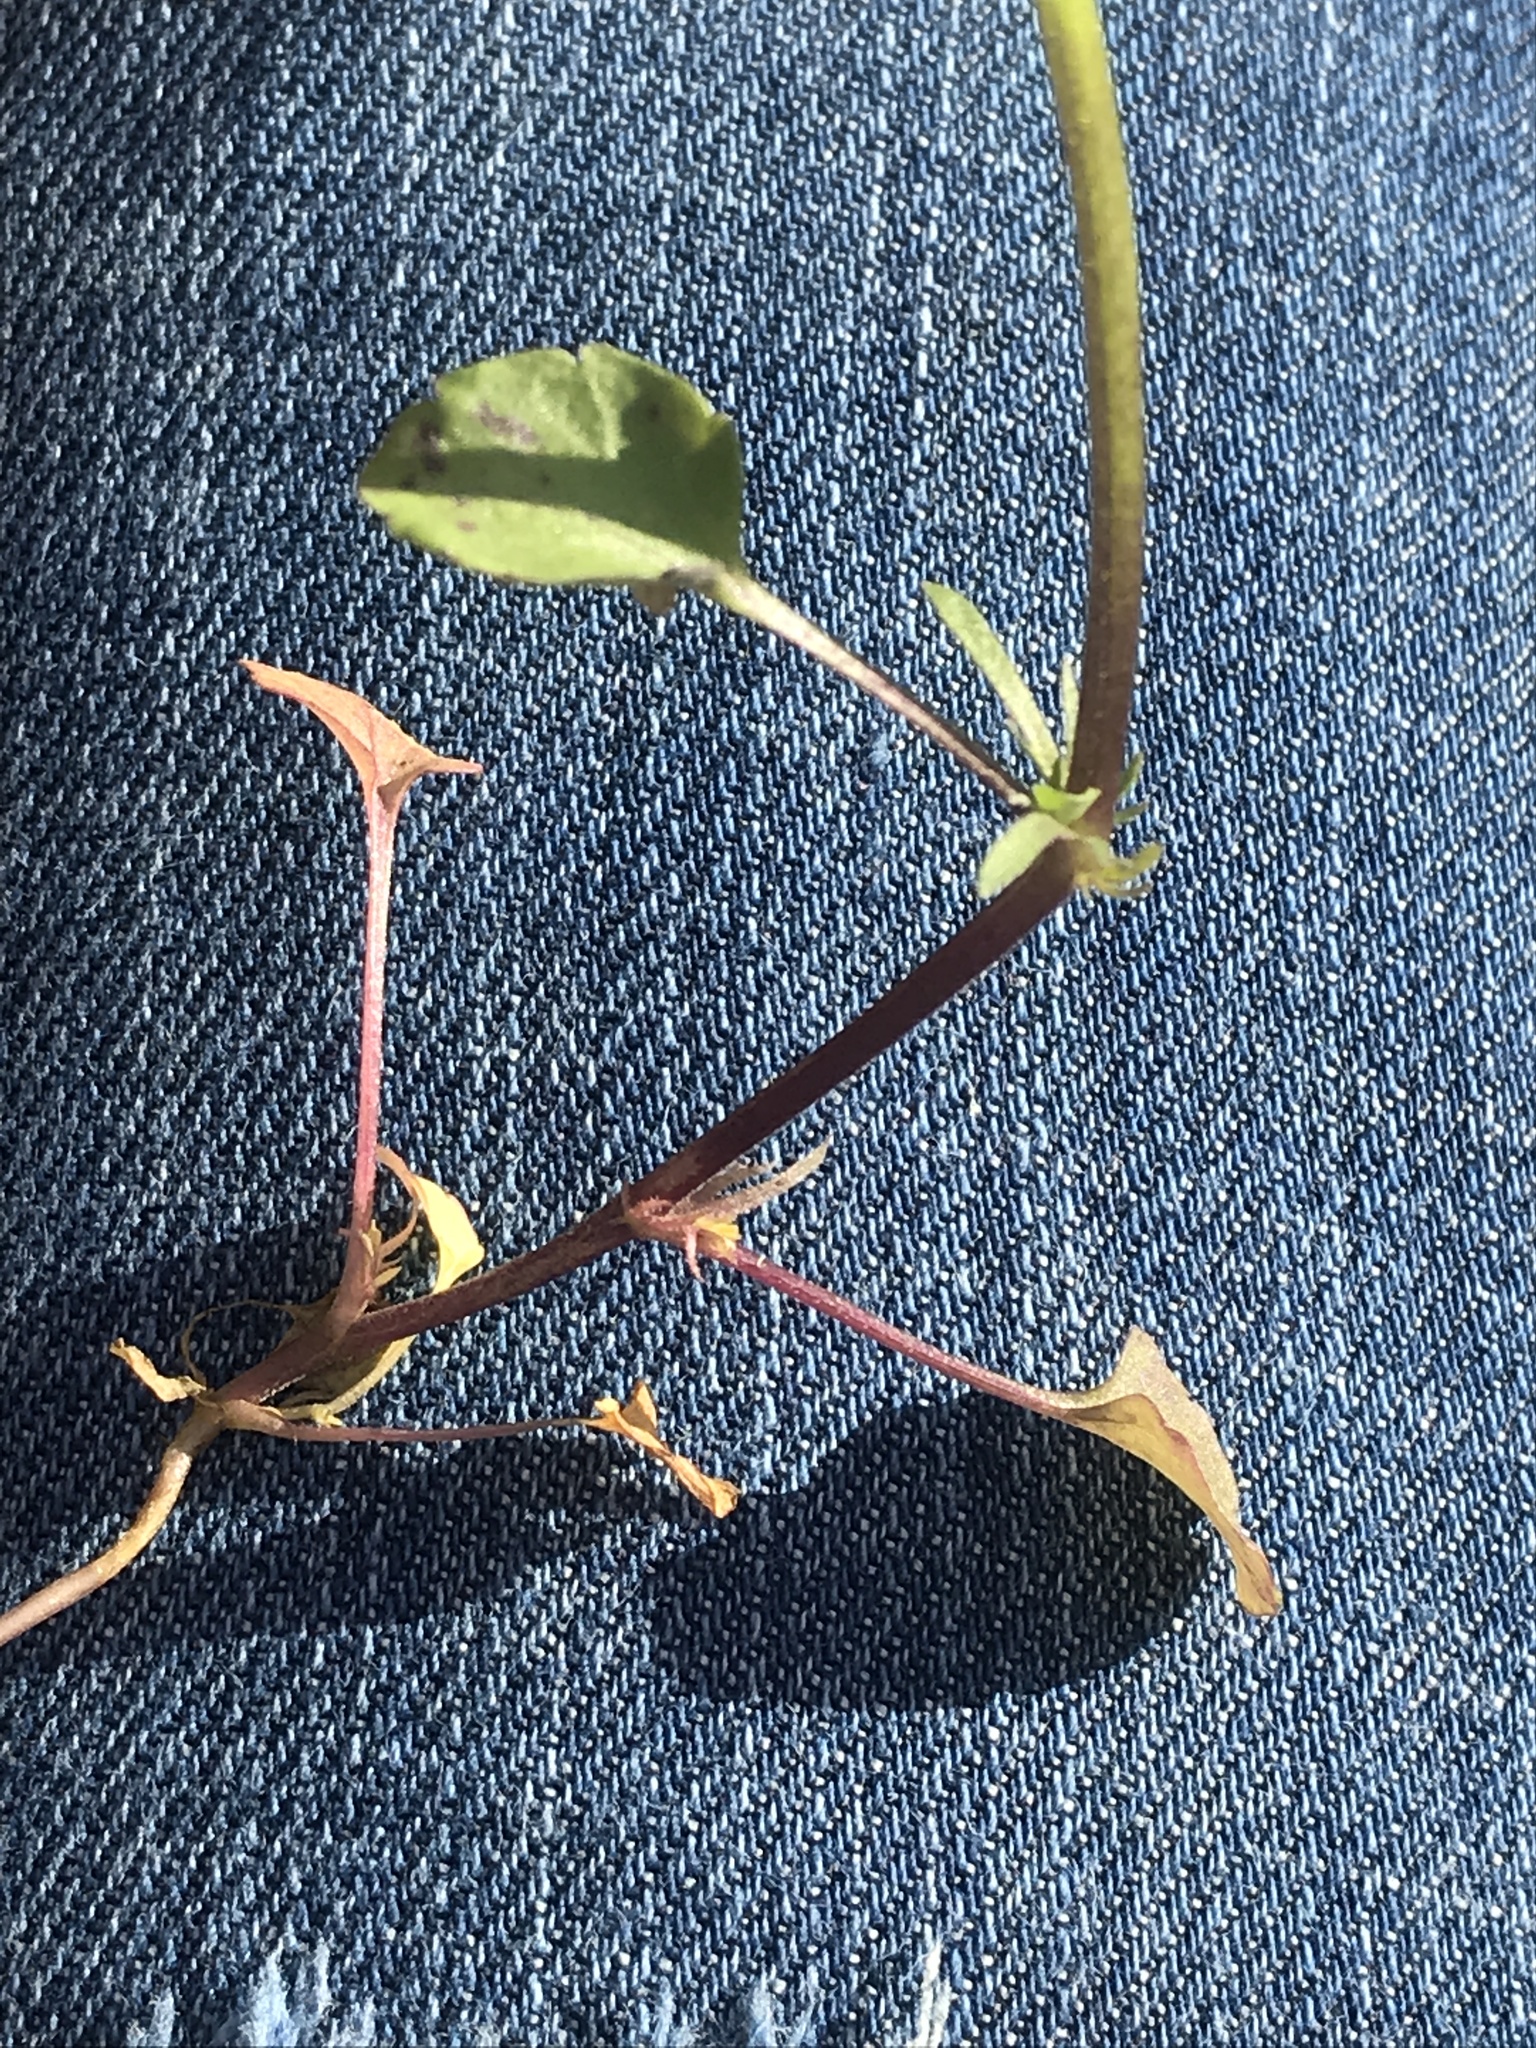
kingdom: Plantae
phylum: Tracheophyta
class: Magnoliopsida
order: Malpighiales
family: Violaceae
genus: Viola
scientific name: Viola rafinesquei
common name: American field pansy
